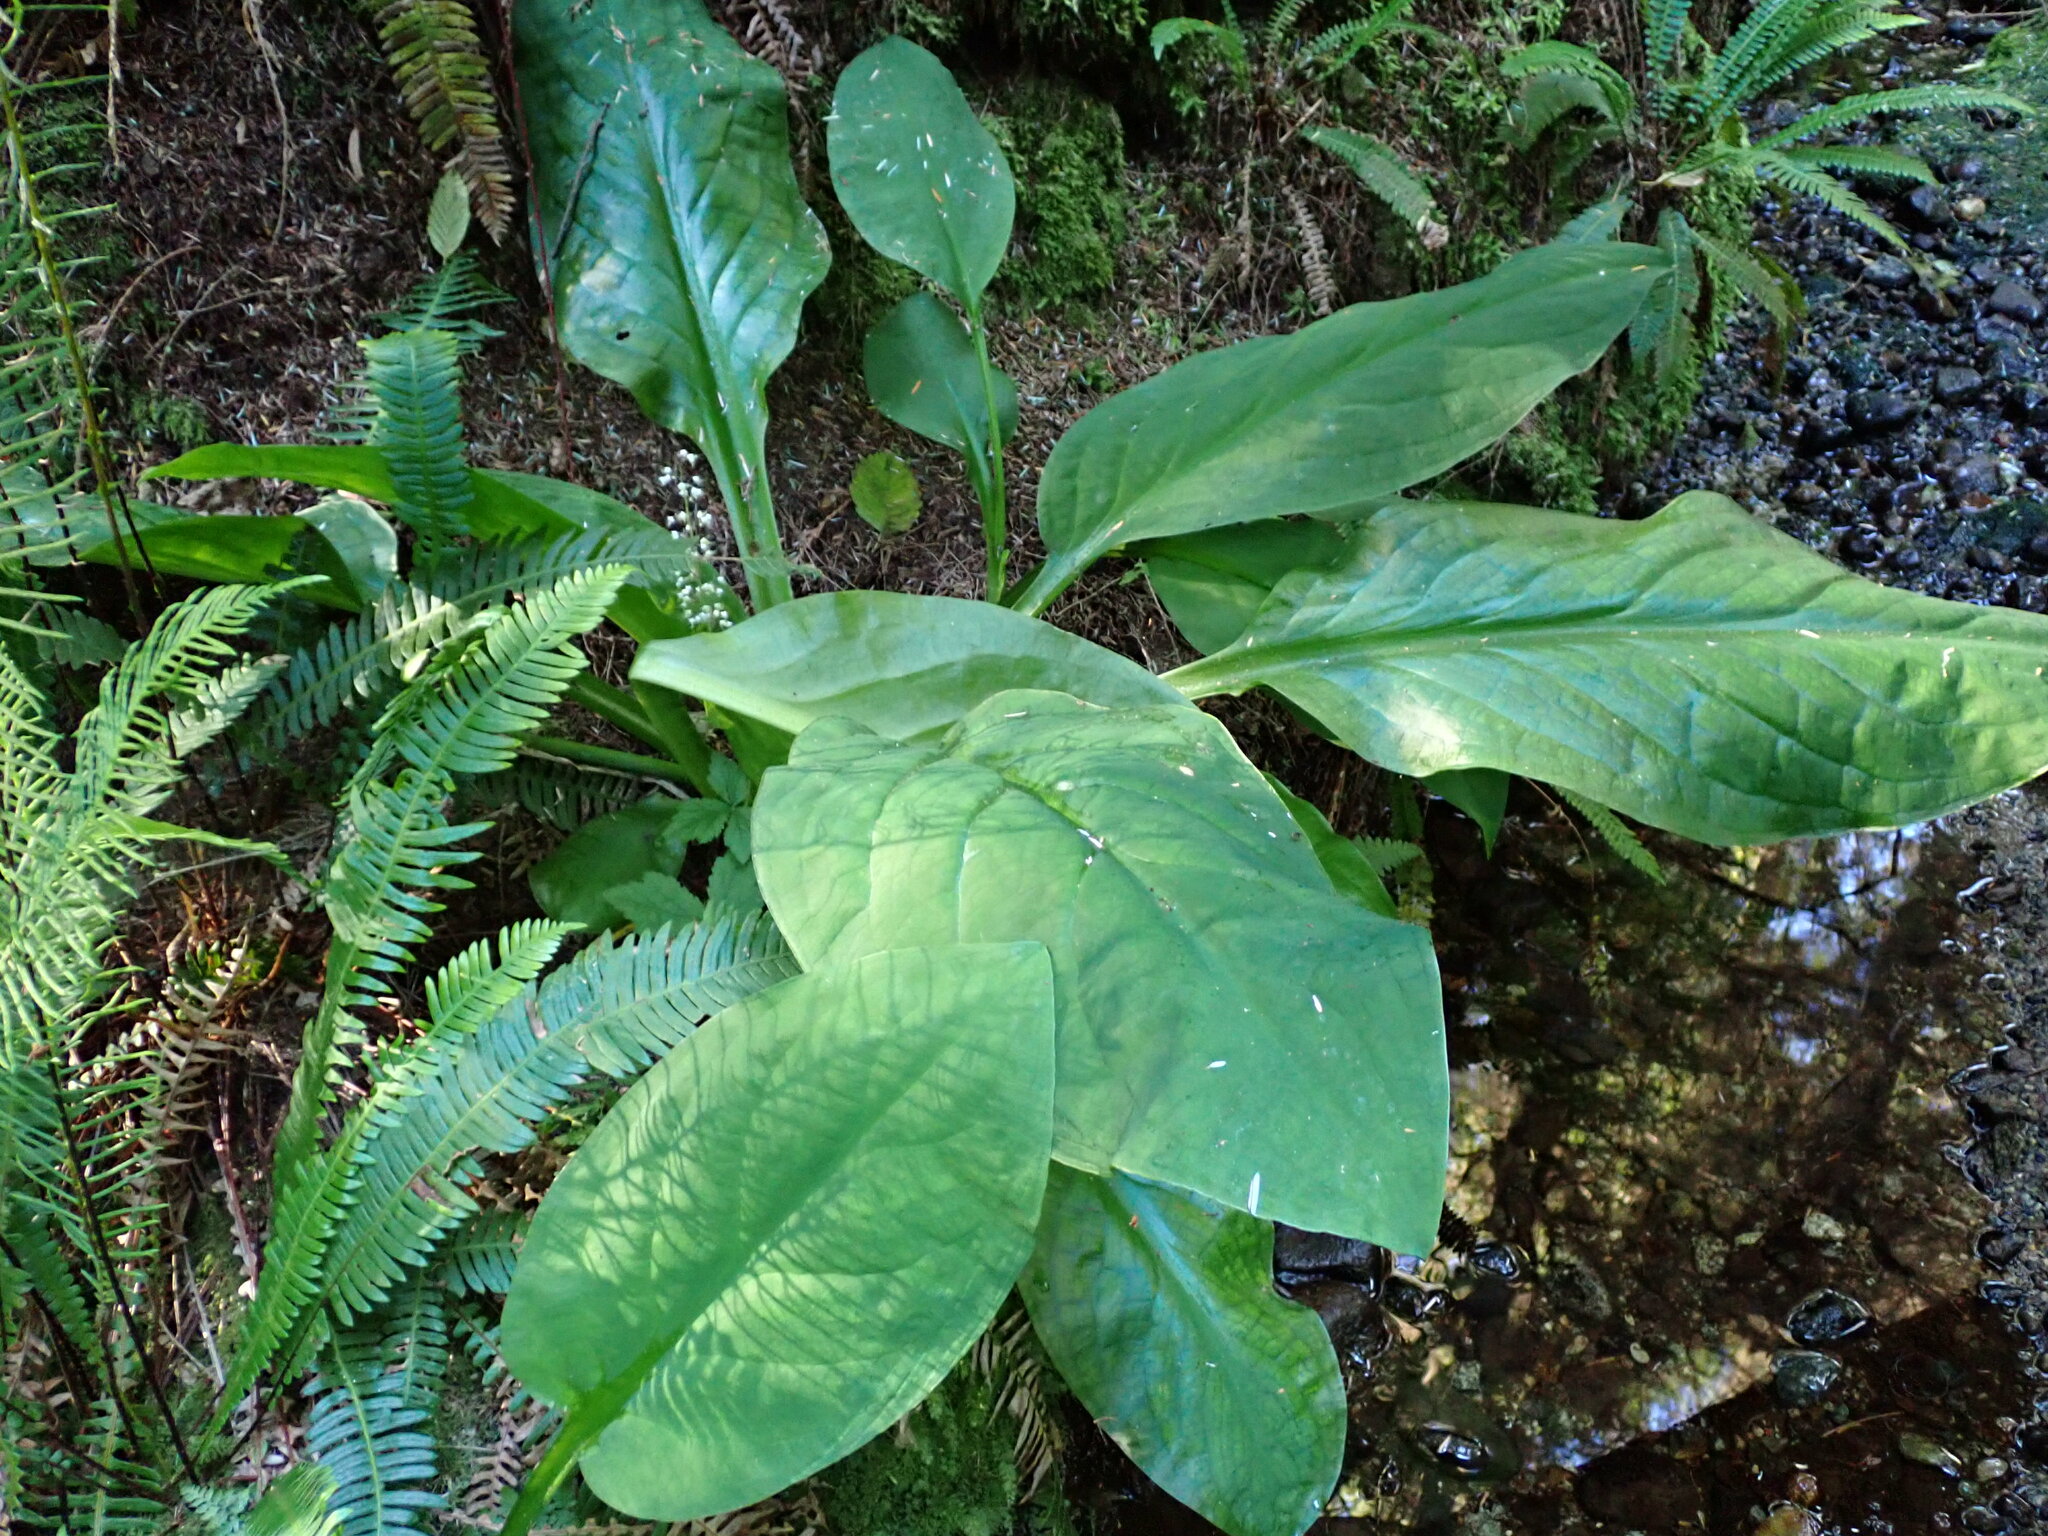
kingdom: Plantae
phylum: Tracheophyta
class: Liliopsida
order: Alismatales
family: Araceae
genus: Lysichiton
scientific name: Lysichiton americanus
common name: American skunk cabbage
